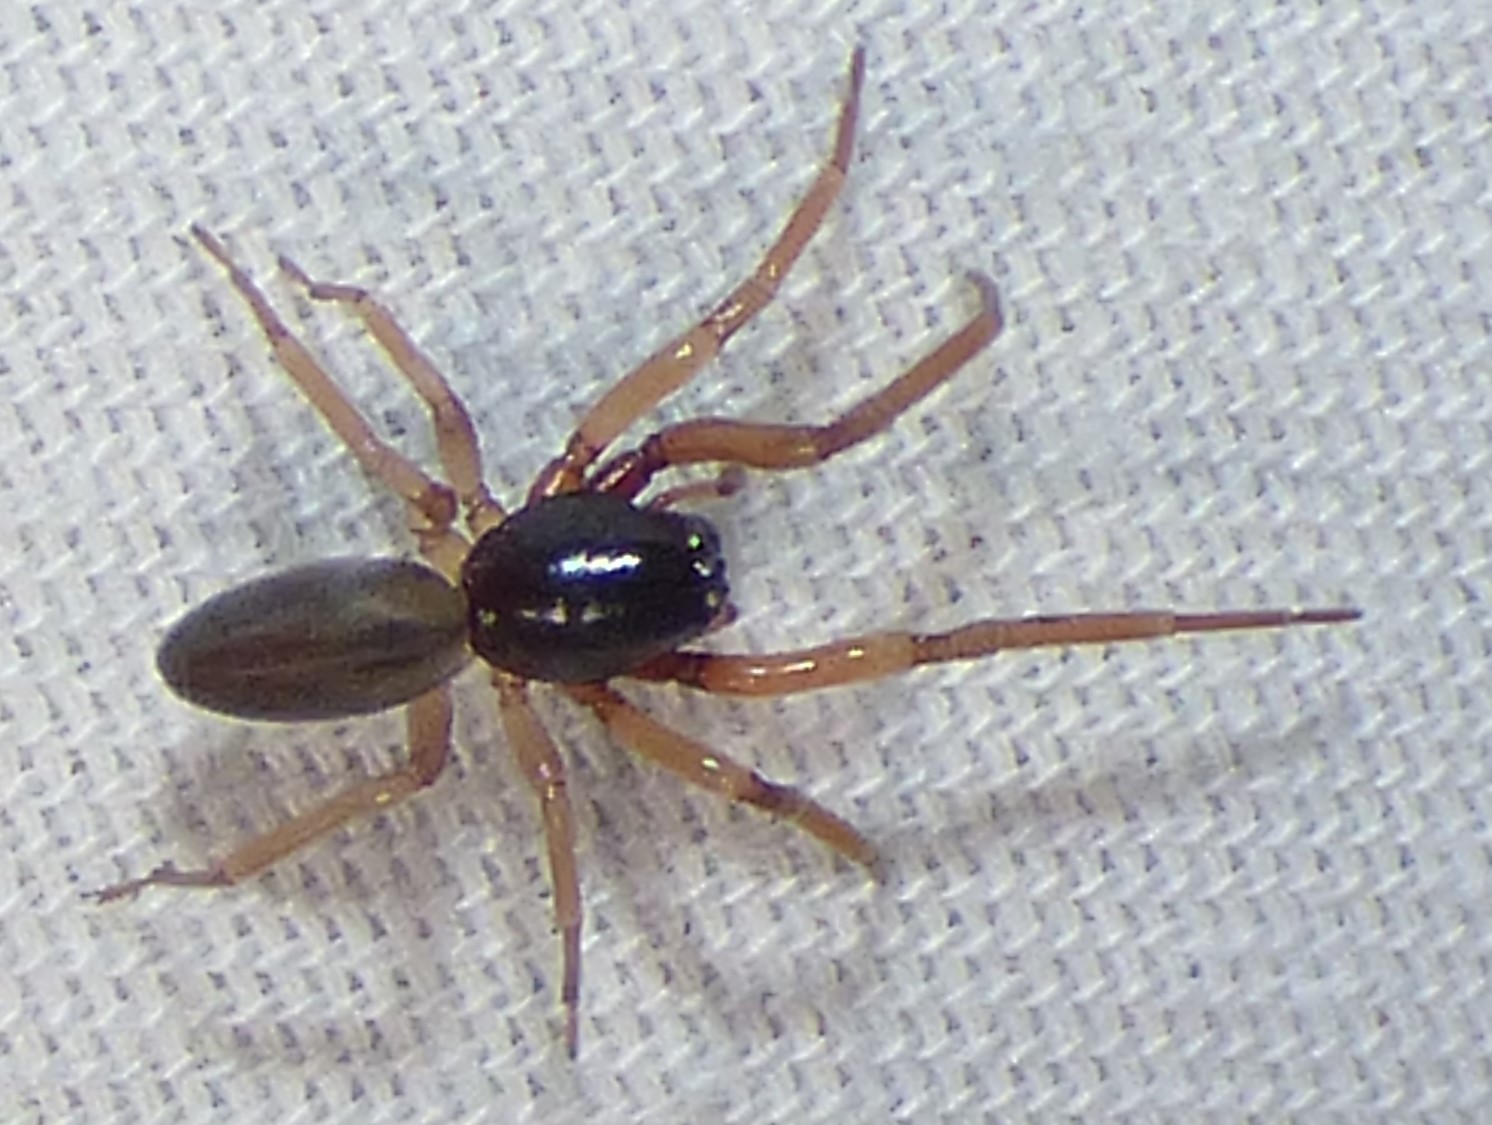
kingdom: Animalia
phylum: Arthropoda
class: Arachnida
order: Araneae
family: Trachelidae
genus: Meriola
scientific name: Meriola decepta
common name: Corinnid sac spiders
